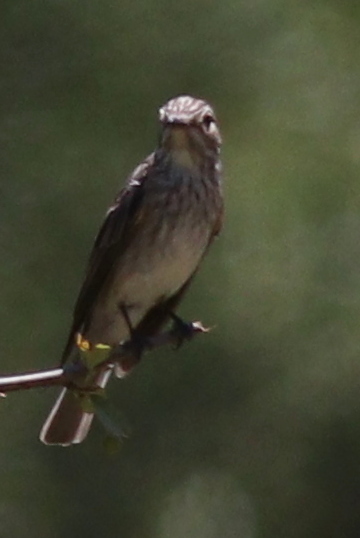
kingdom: Animalia
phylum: Chordata
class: Aves
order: Passeriformes
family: Muscicapidae
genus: Muscicapa
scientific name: Muscicapa striata
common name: Spotted flycatcher
